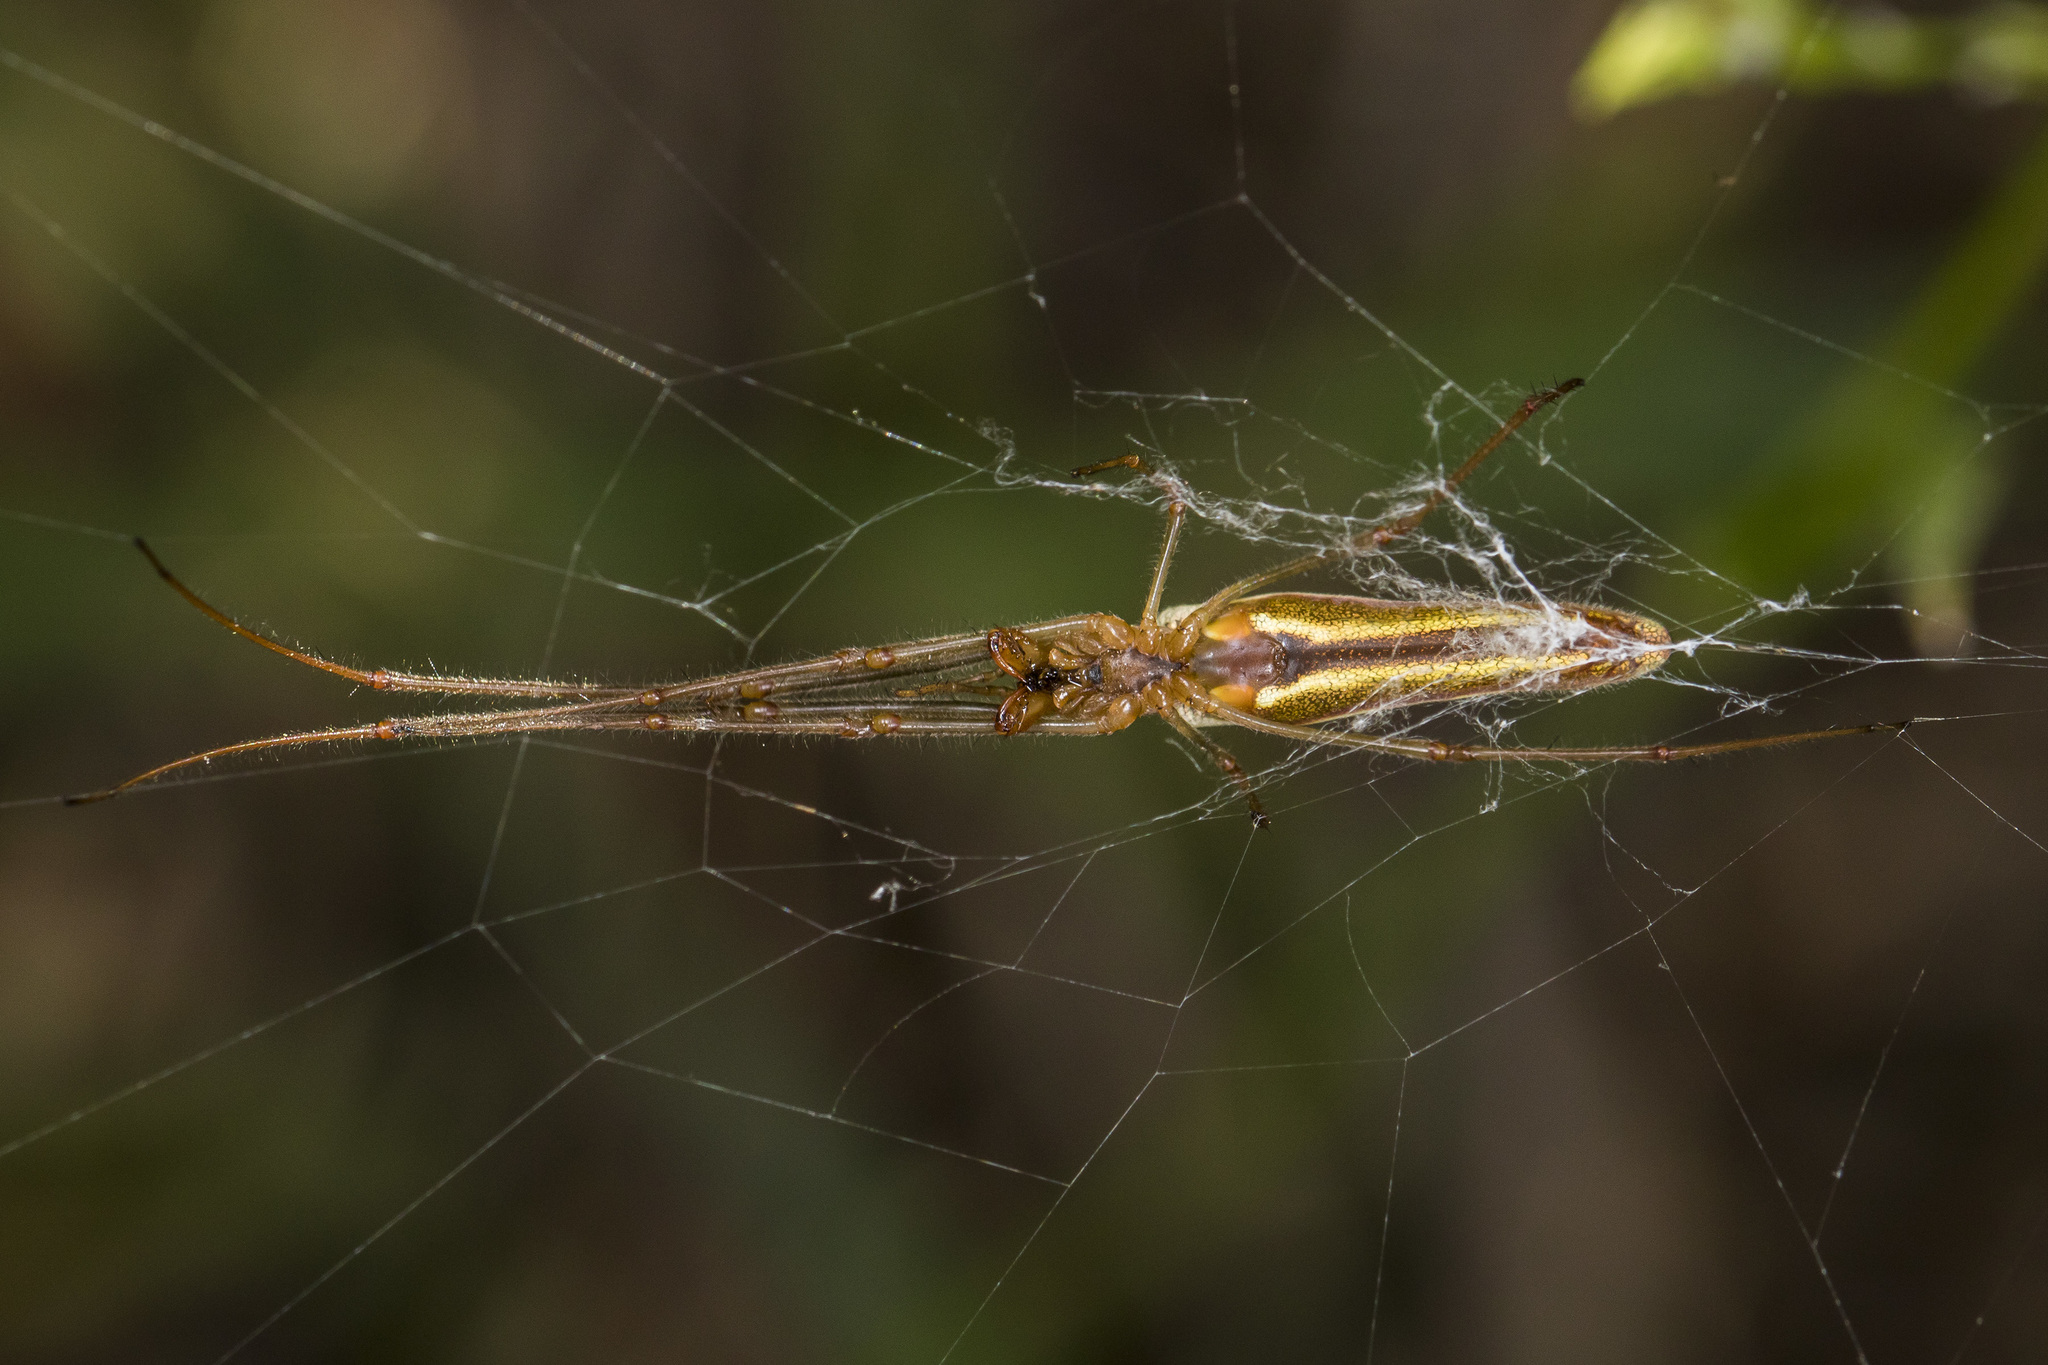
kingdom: Animalia
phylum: Arthropoda
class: Arachnida
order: Araneae
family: Tetragnathidae
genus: Tetragnatha
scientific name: Tetragnatha extensa
